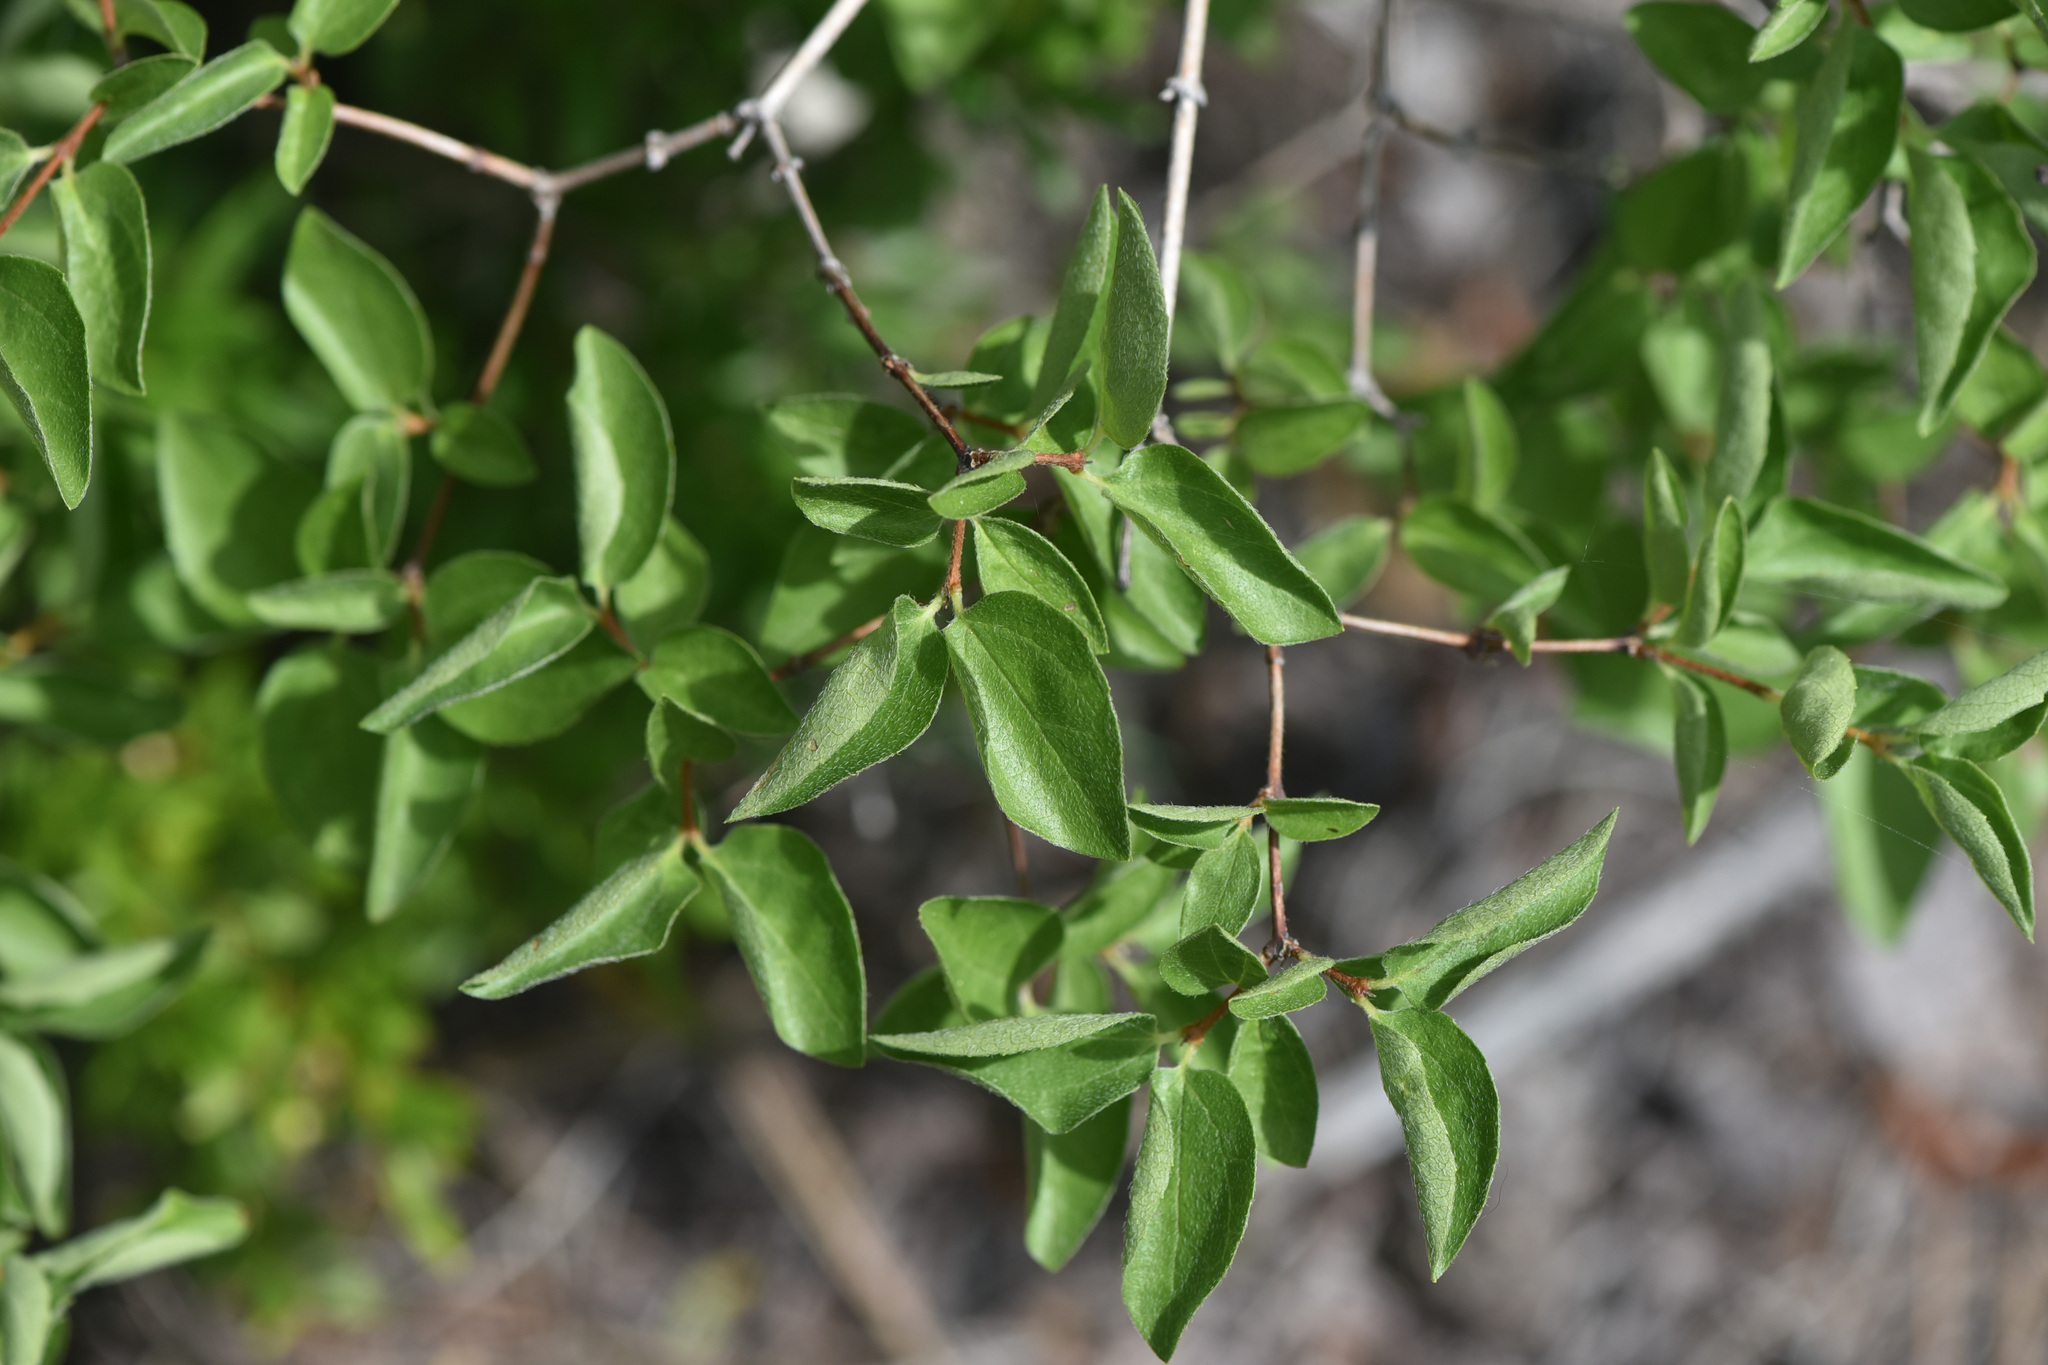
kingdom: Plantae
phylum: Tracheophyta
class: Magnoliopsida
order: Cornales
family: Hydrangeaceae
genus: Philadelphus
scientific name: Philadelphus lewisii
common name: Lewis's mock orange
